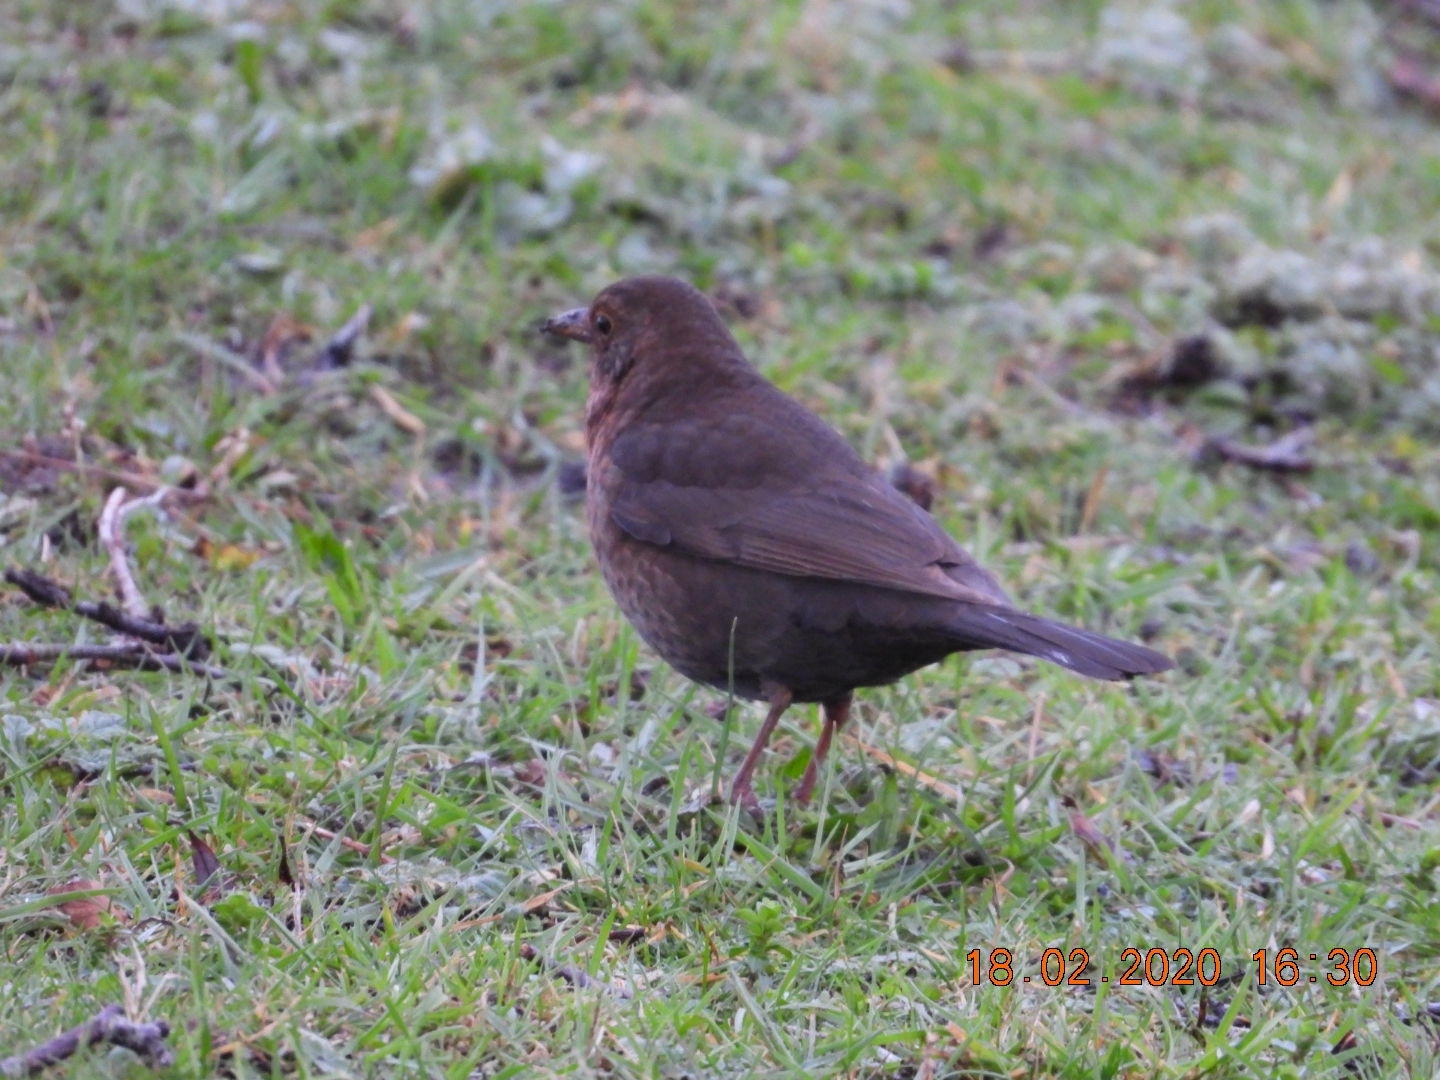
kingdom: Animalia
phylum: Chordata
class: Aves
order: Passeriformes
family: Turdidae
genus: Turdus
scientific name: Turdus merula
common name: Common blackbird
